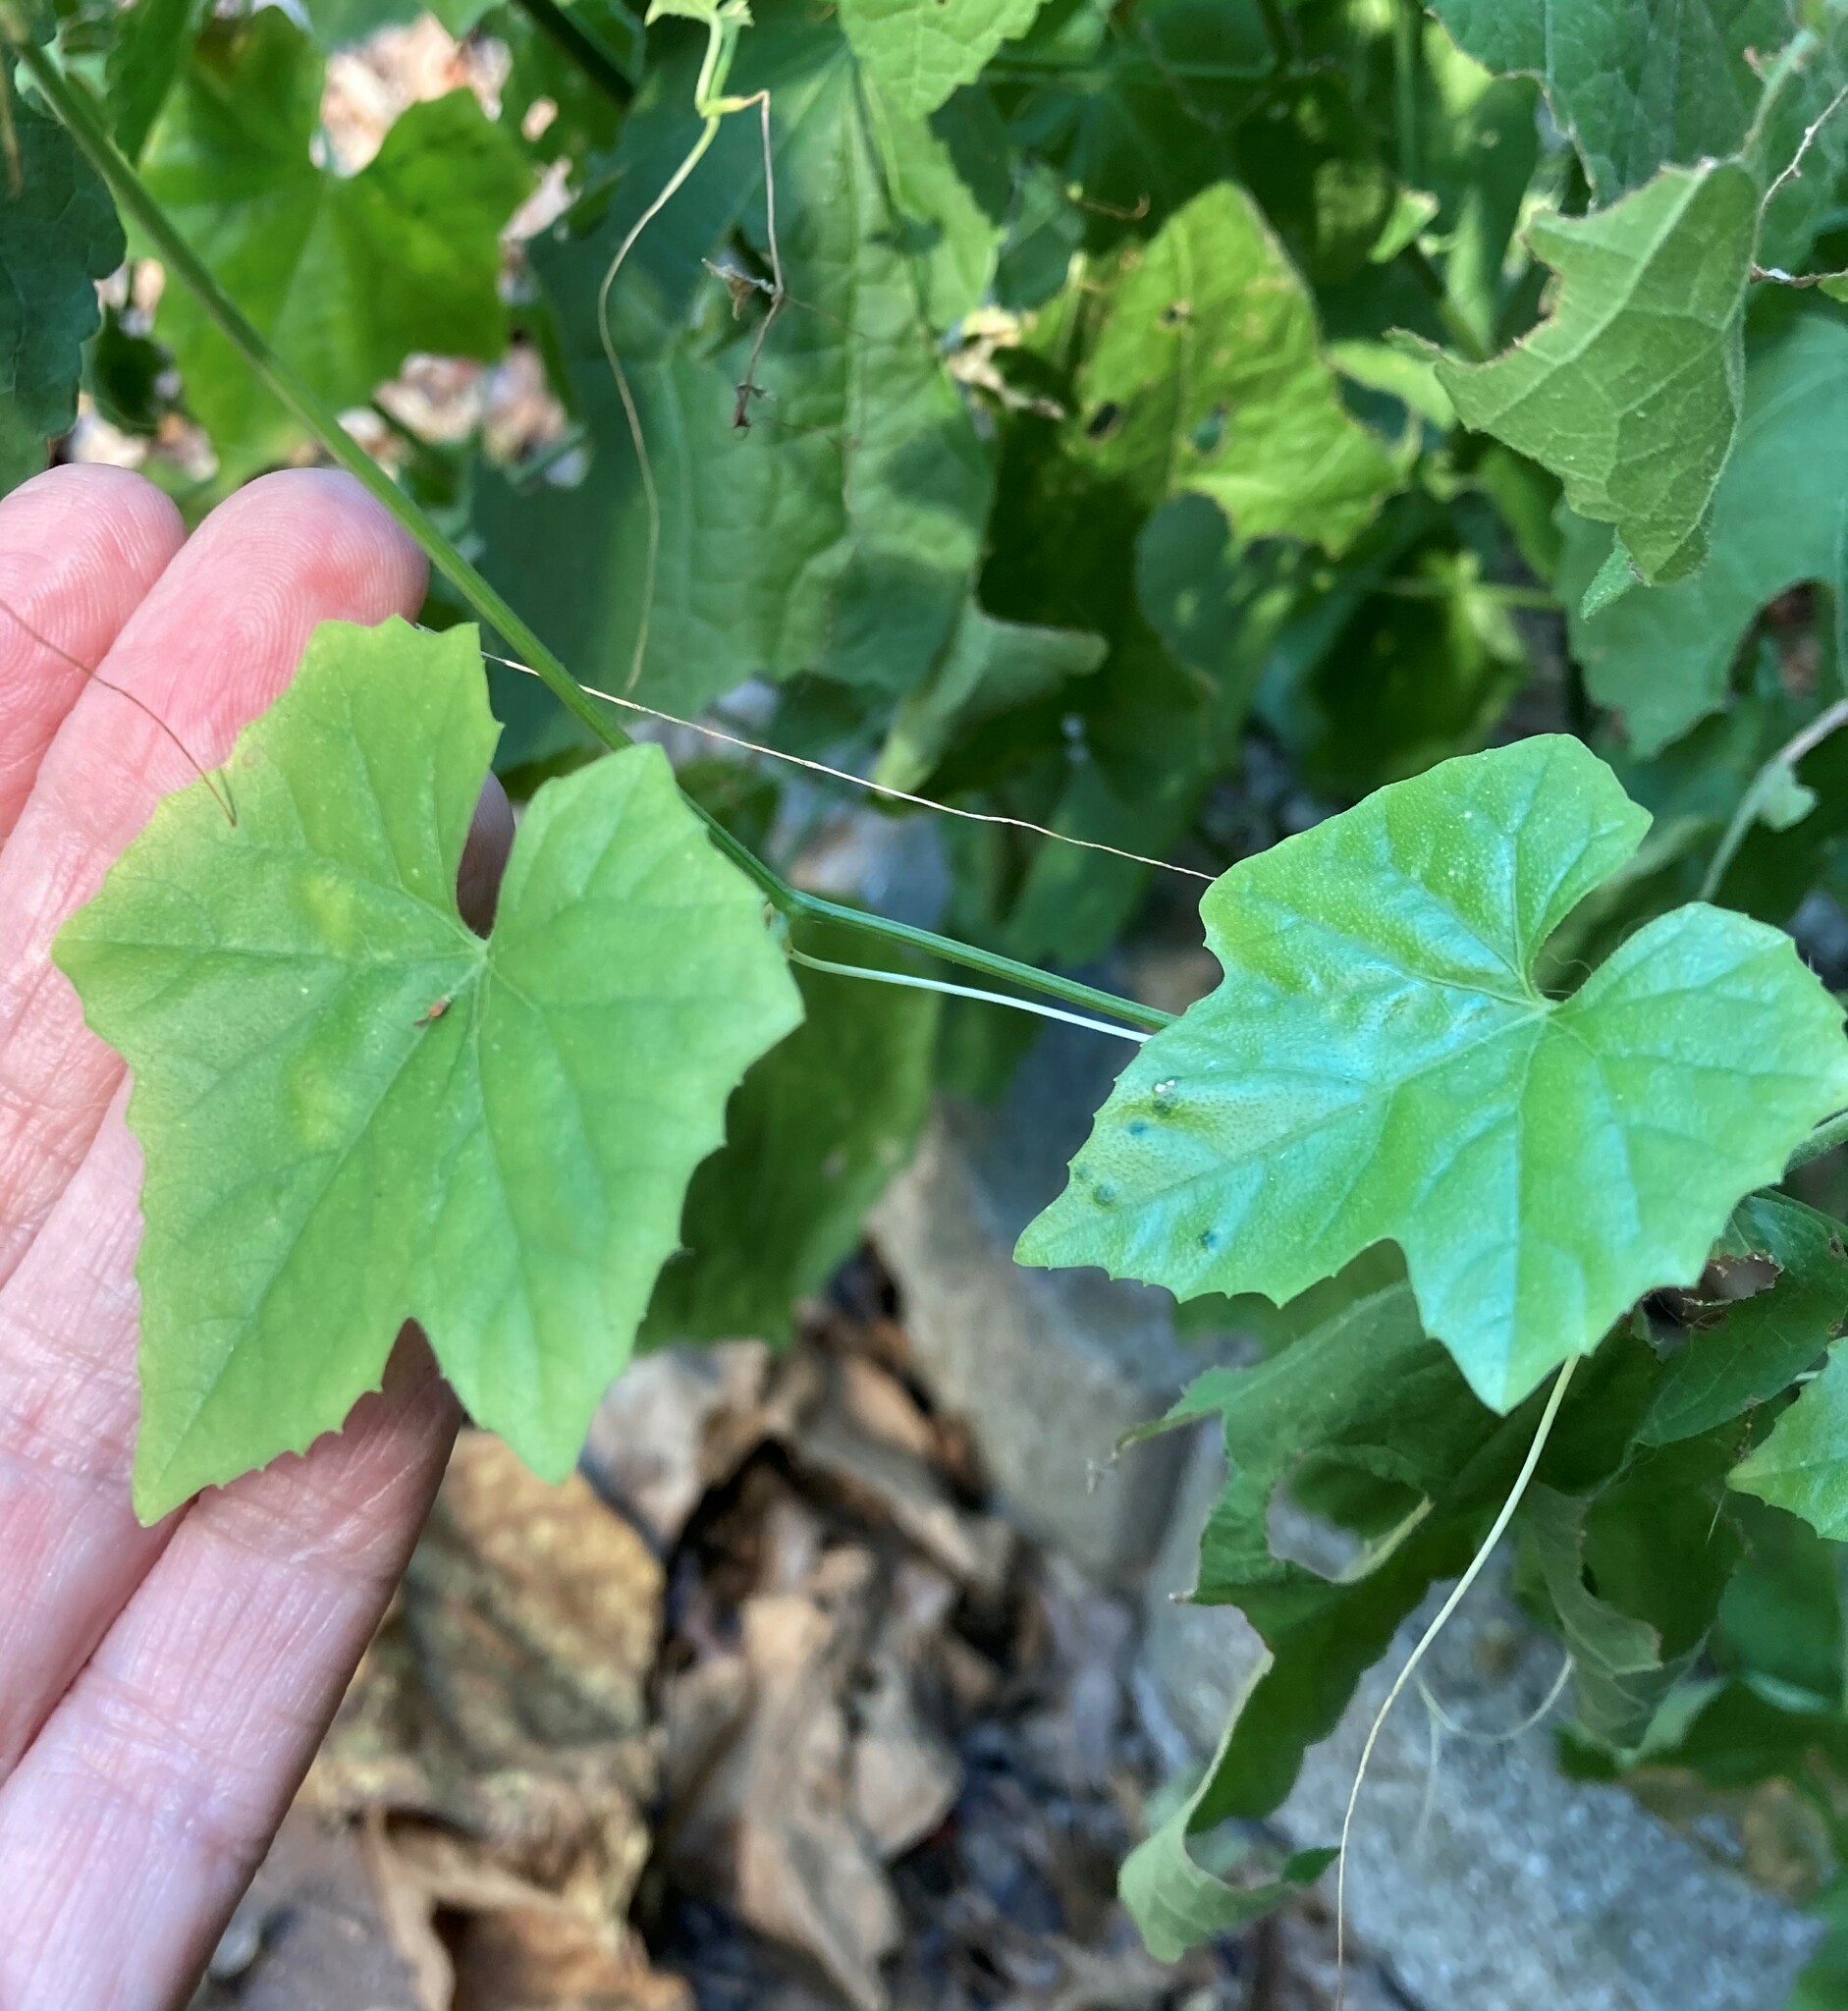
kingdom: Plantae
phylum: Tracheophyta
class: Magnoliopsida
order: Cucurbitales
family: Cucurbitaceae
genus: Melothria
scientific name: Melothria pendula
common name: Creeping-cucumber
